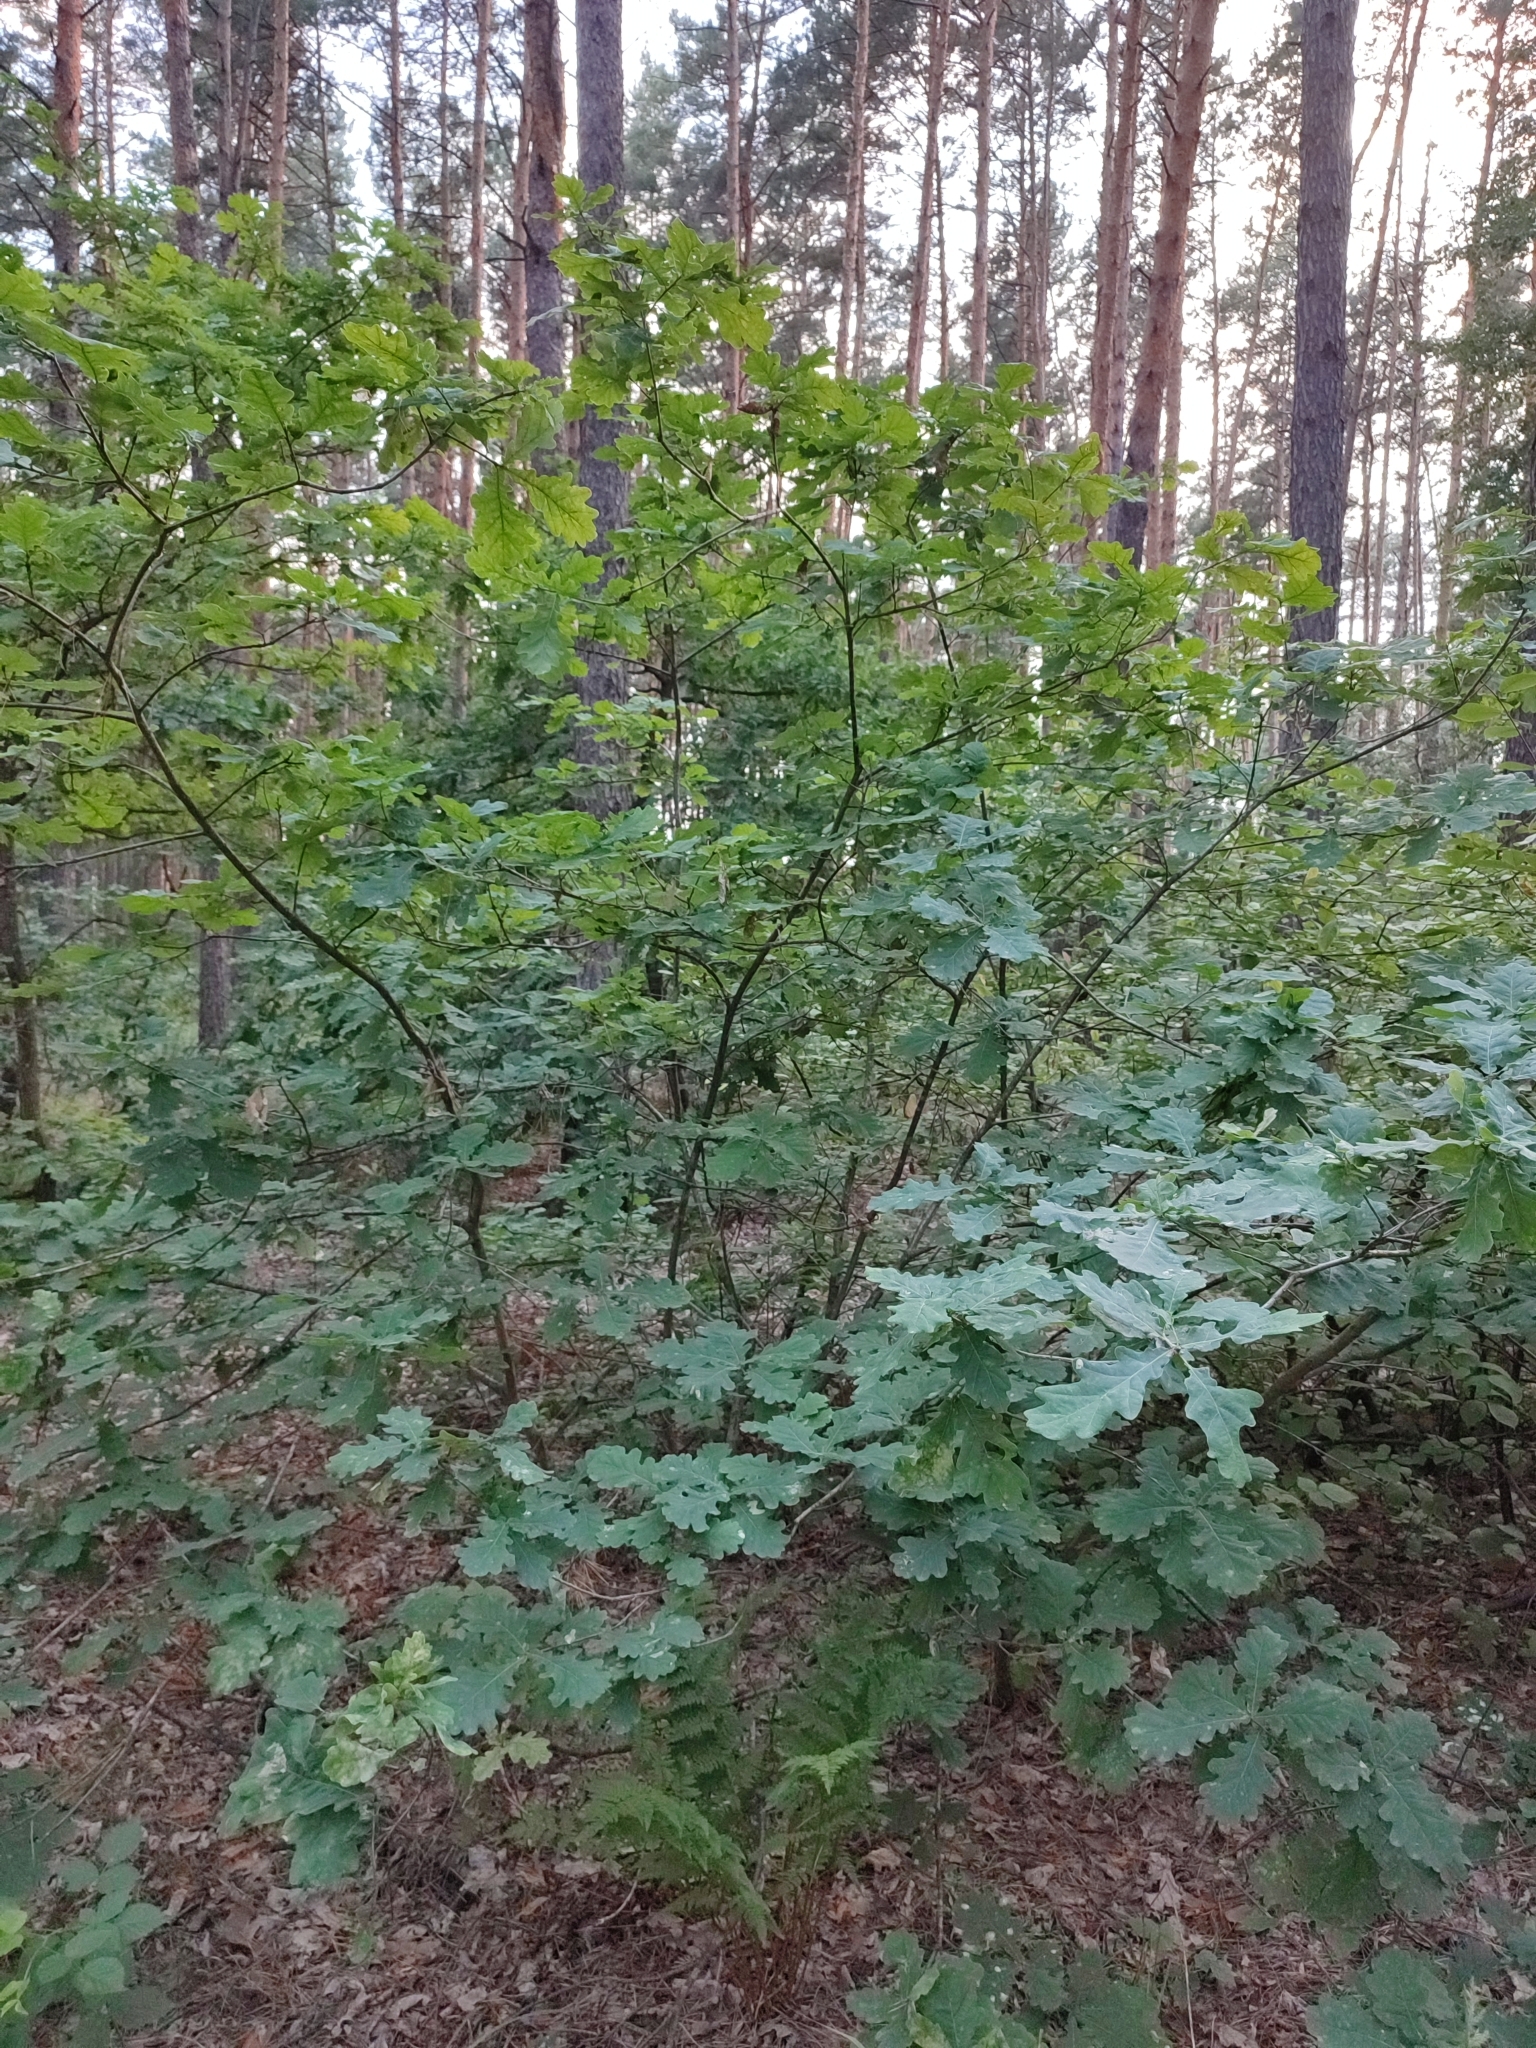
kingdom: Plantae
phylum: Tracheophyta
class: Magnoliopsida
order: Fagales
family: Fagaceae
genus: Quercus
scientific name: Quercus robur
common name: Pedunculate oak
